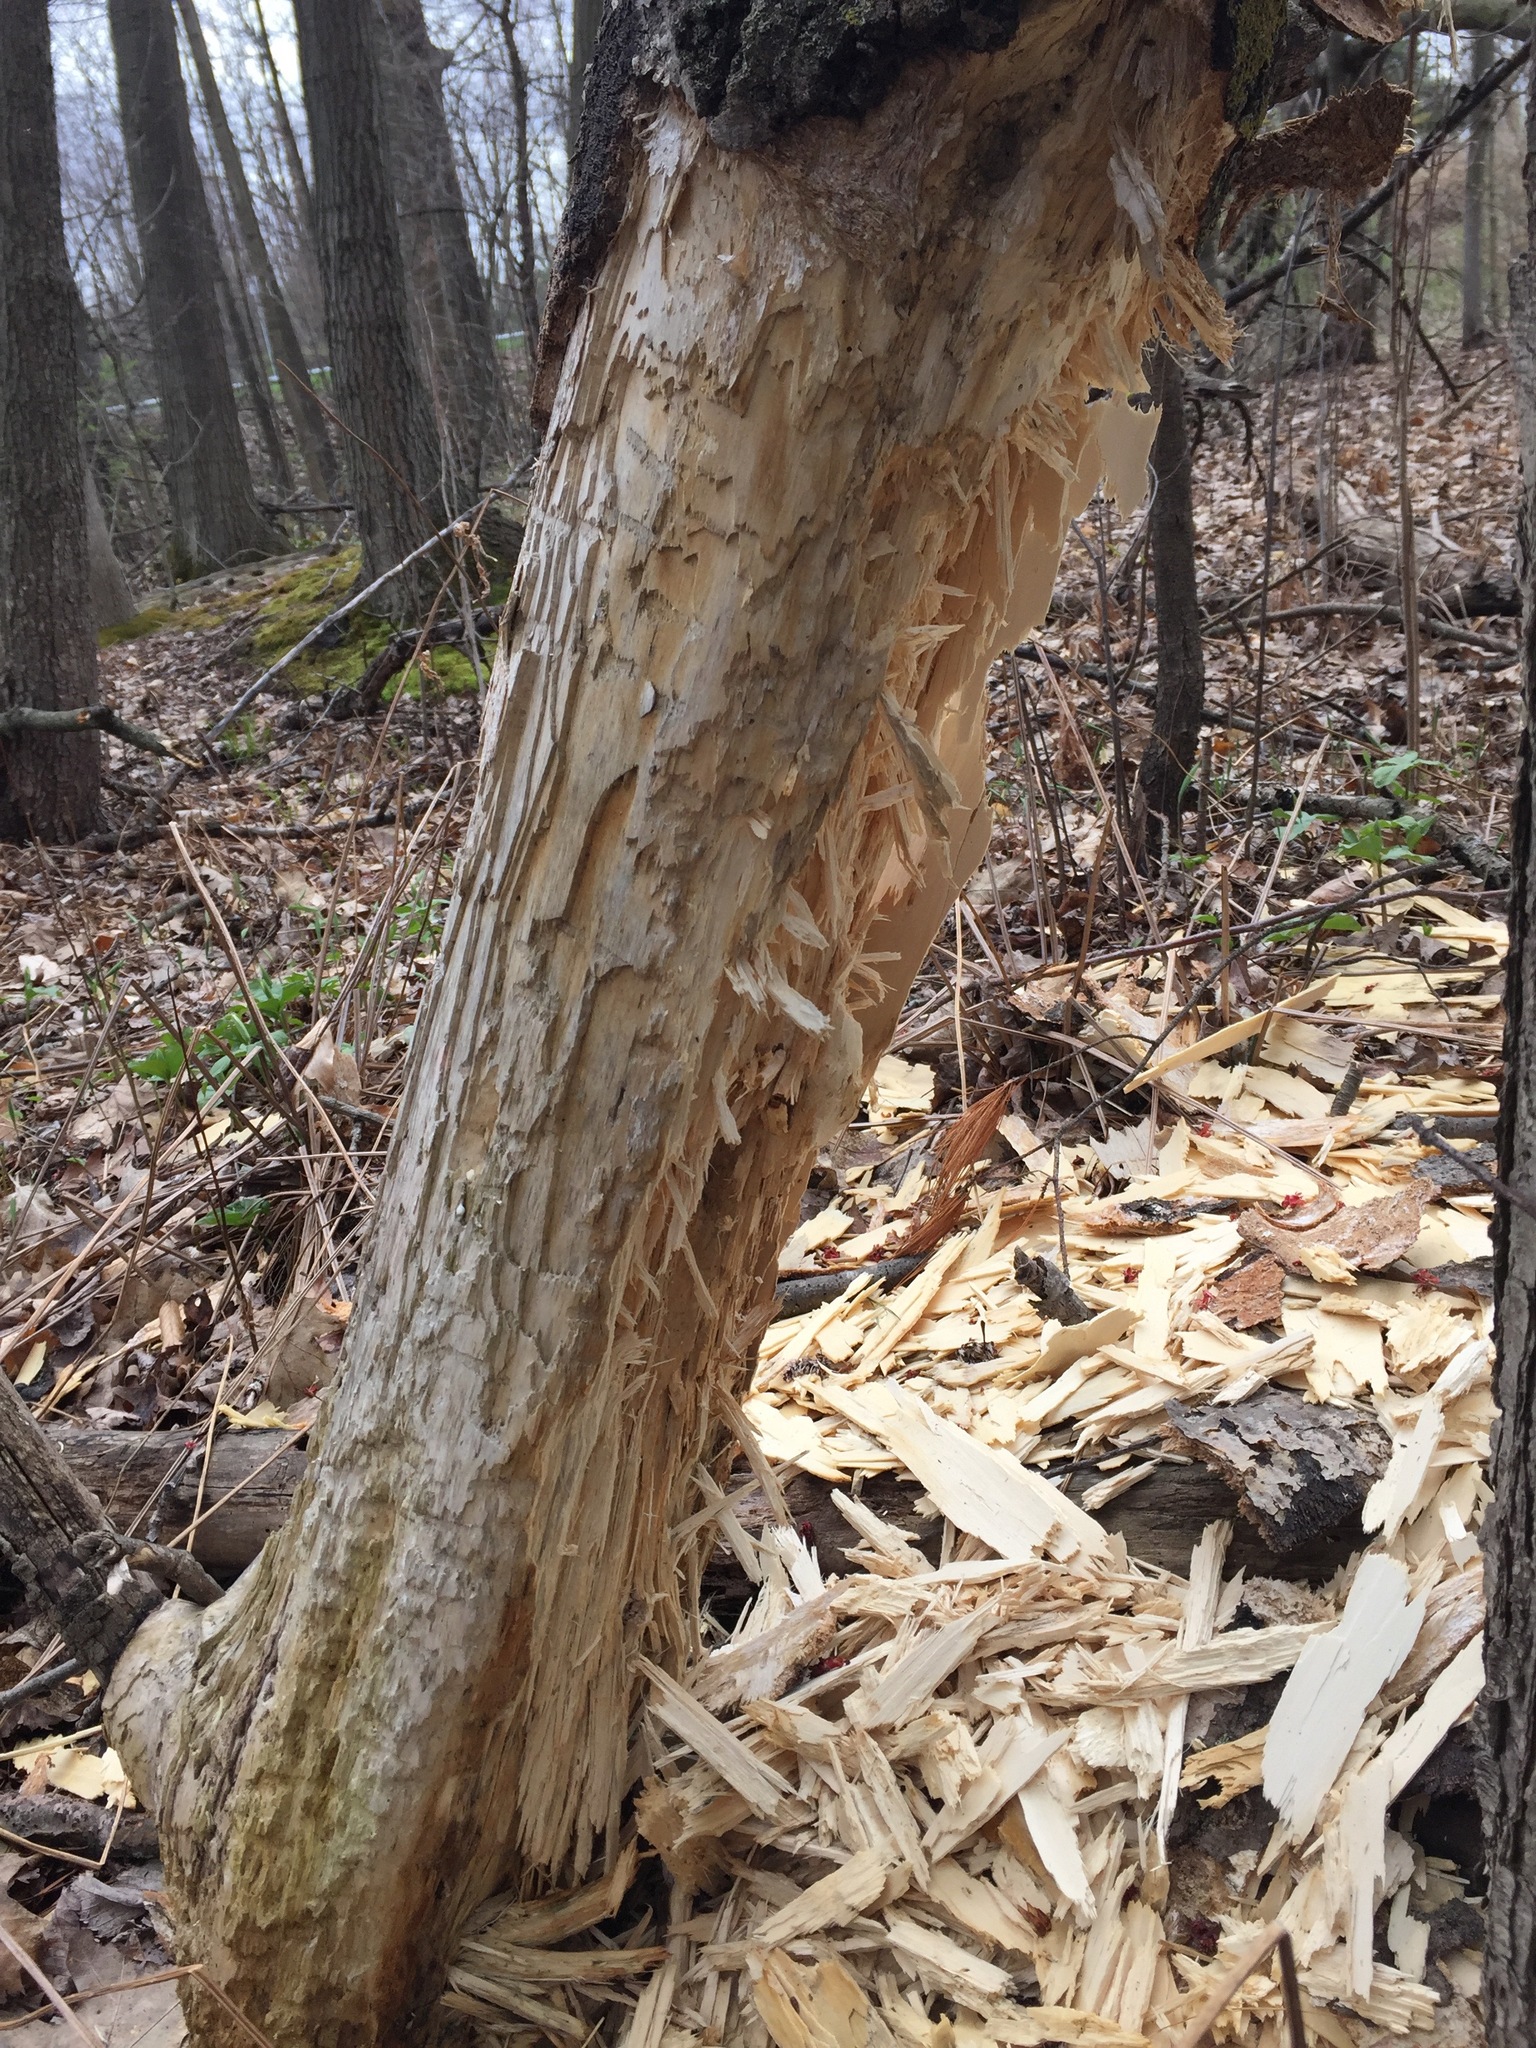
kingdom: Animalia
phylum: Chordata
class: Aves
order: Piciformes
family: Picidae
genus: Dryocopus
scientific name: Dryocopus pileatus
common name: Pileated woodpecker
